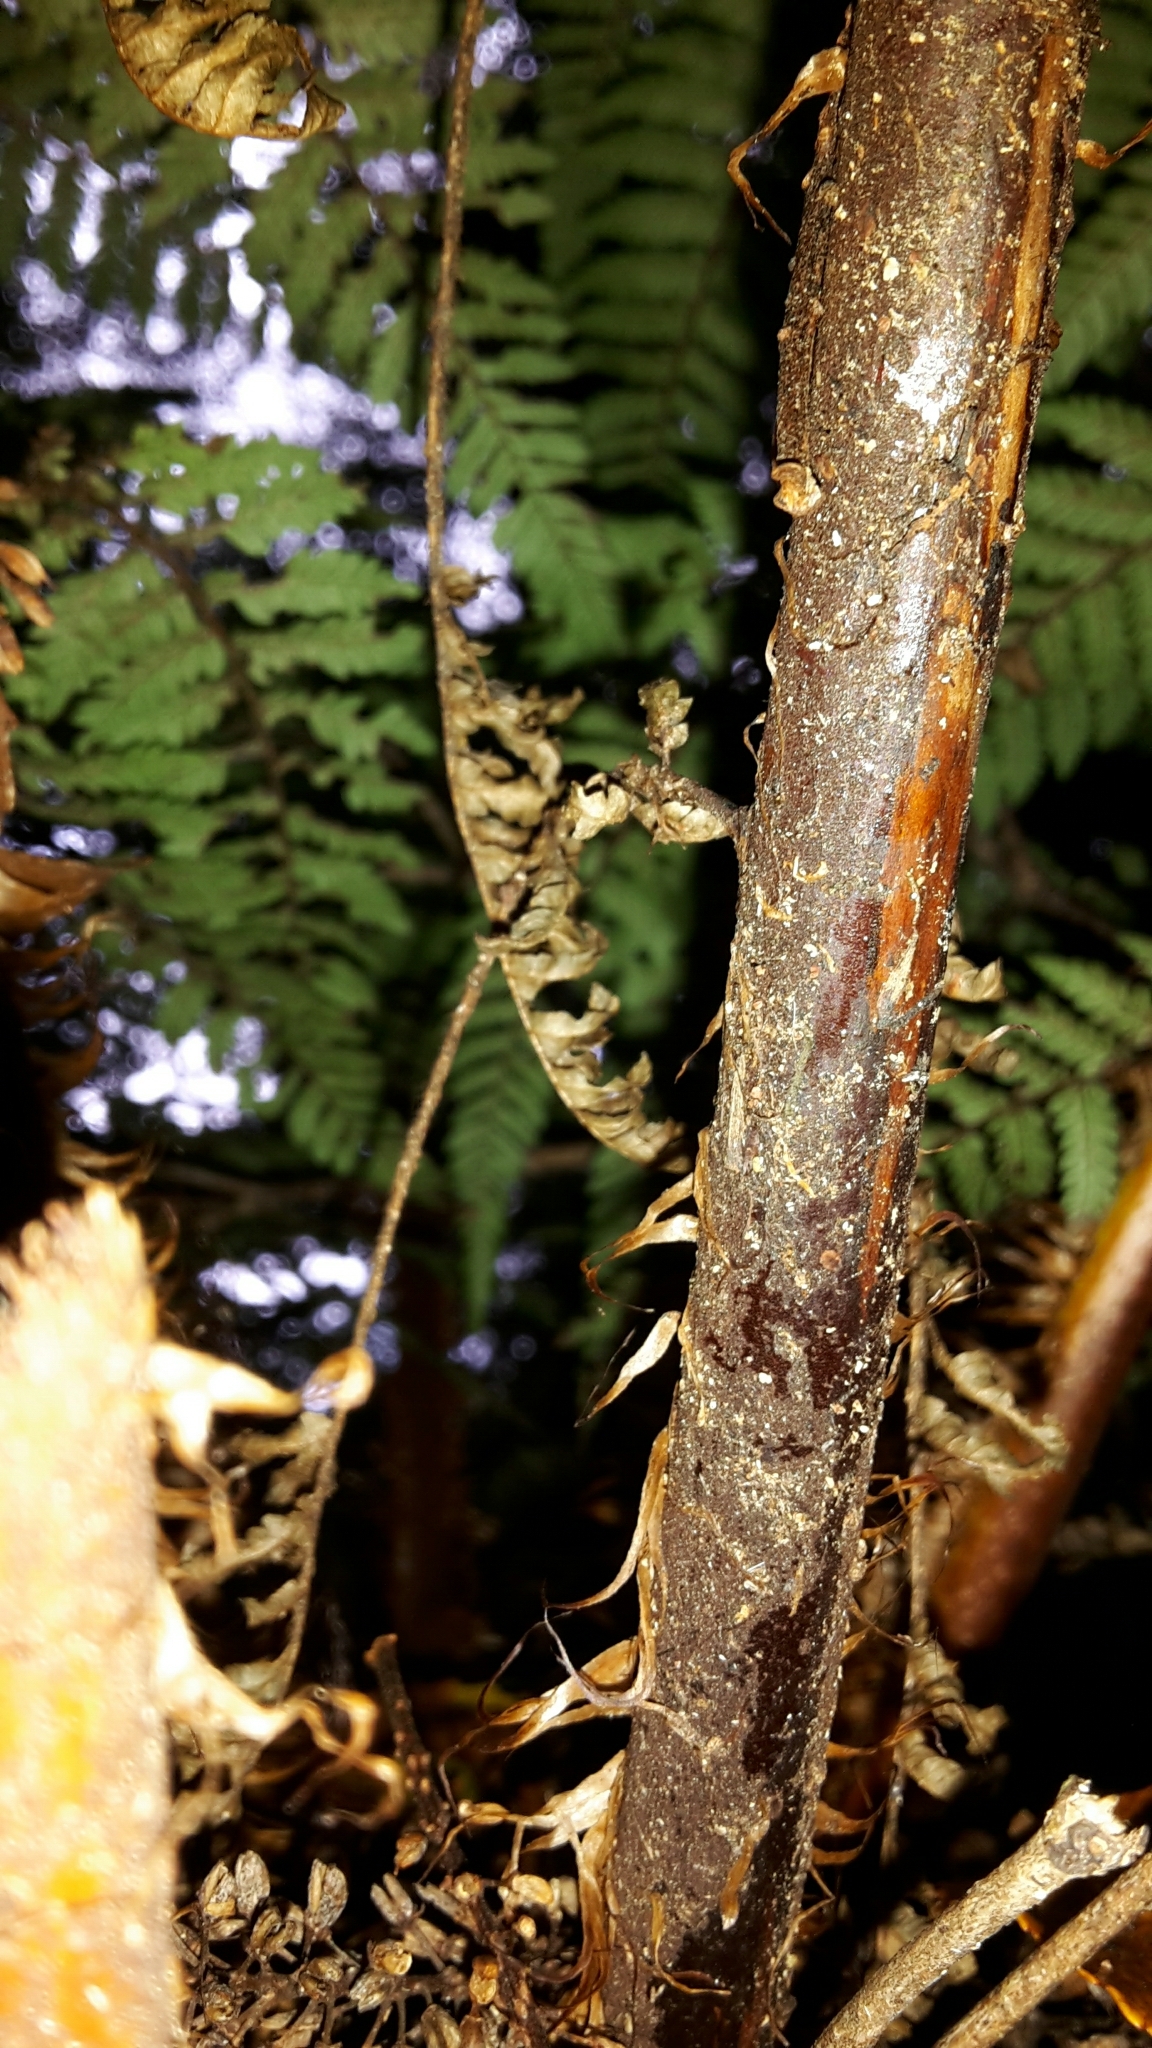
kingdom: Plantae
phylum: Tracheophyta
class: Polypodiopsida
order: Cyatheales
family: Cyatheaceae
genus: Alsophila
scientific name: Alsophila smithii
